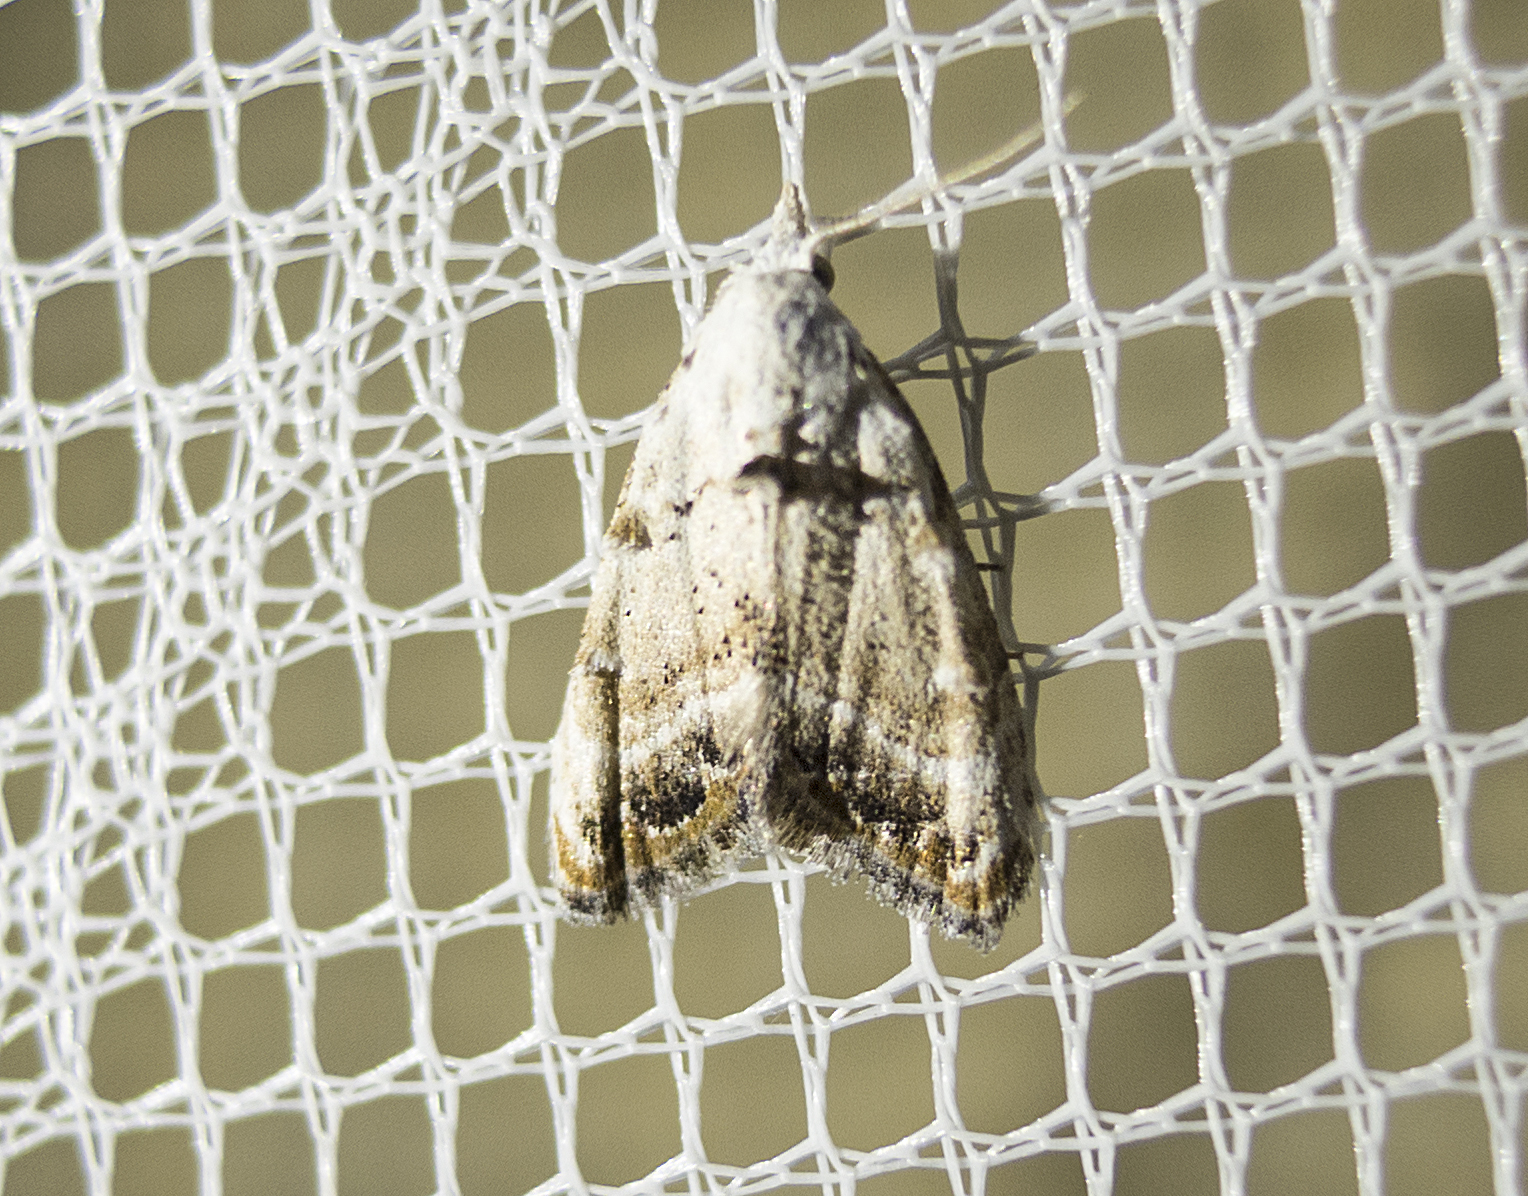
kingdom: Animalia
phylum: Arthropoda
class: Insecta
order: Lepidoptera
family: Nolidae
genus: Nola
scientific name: Nola chlamitulalis
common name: Jersey black arches
